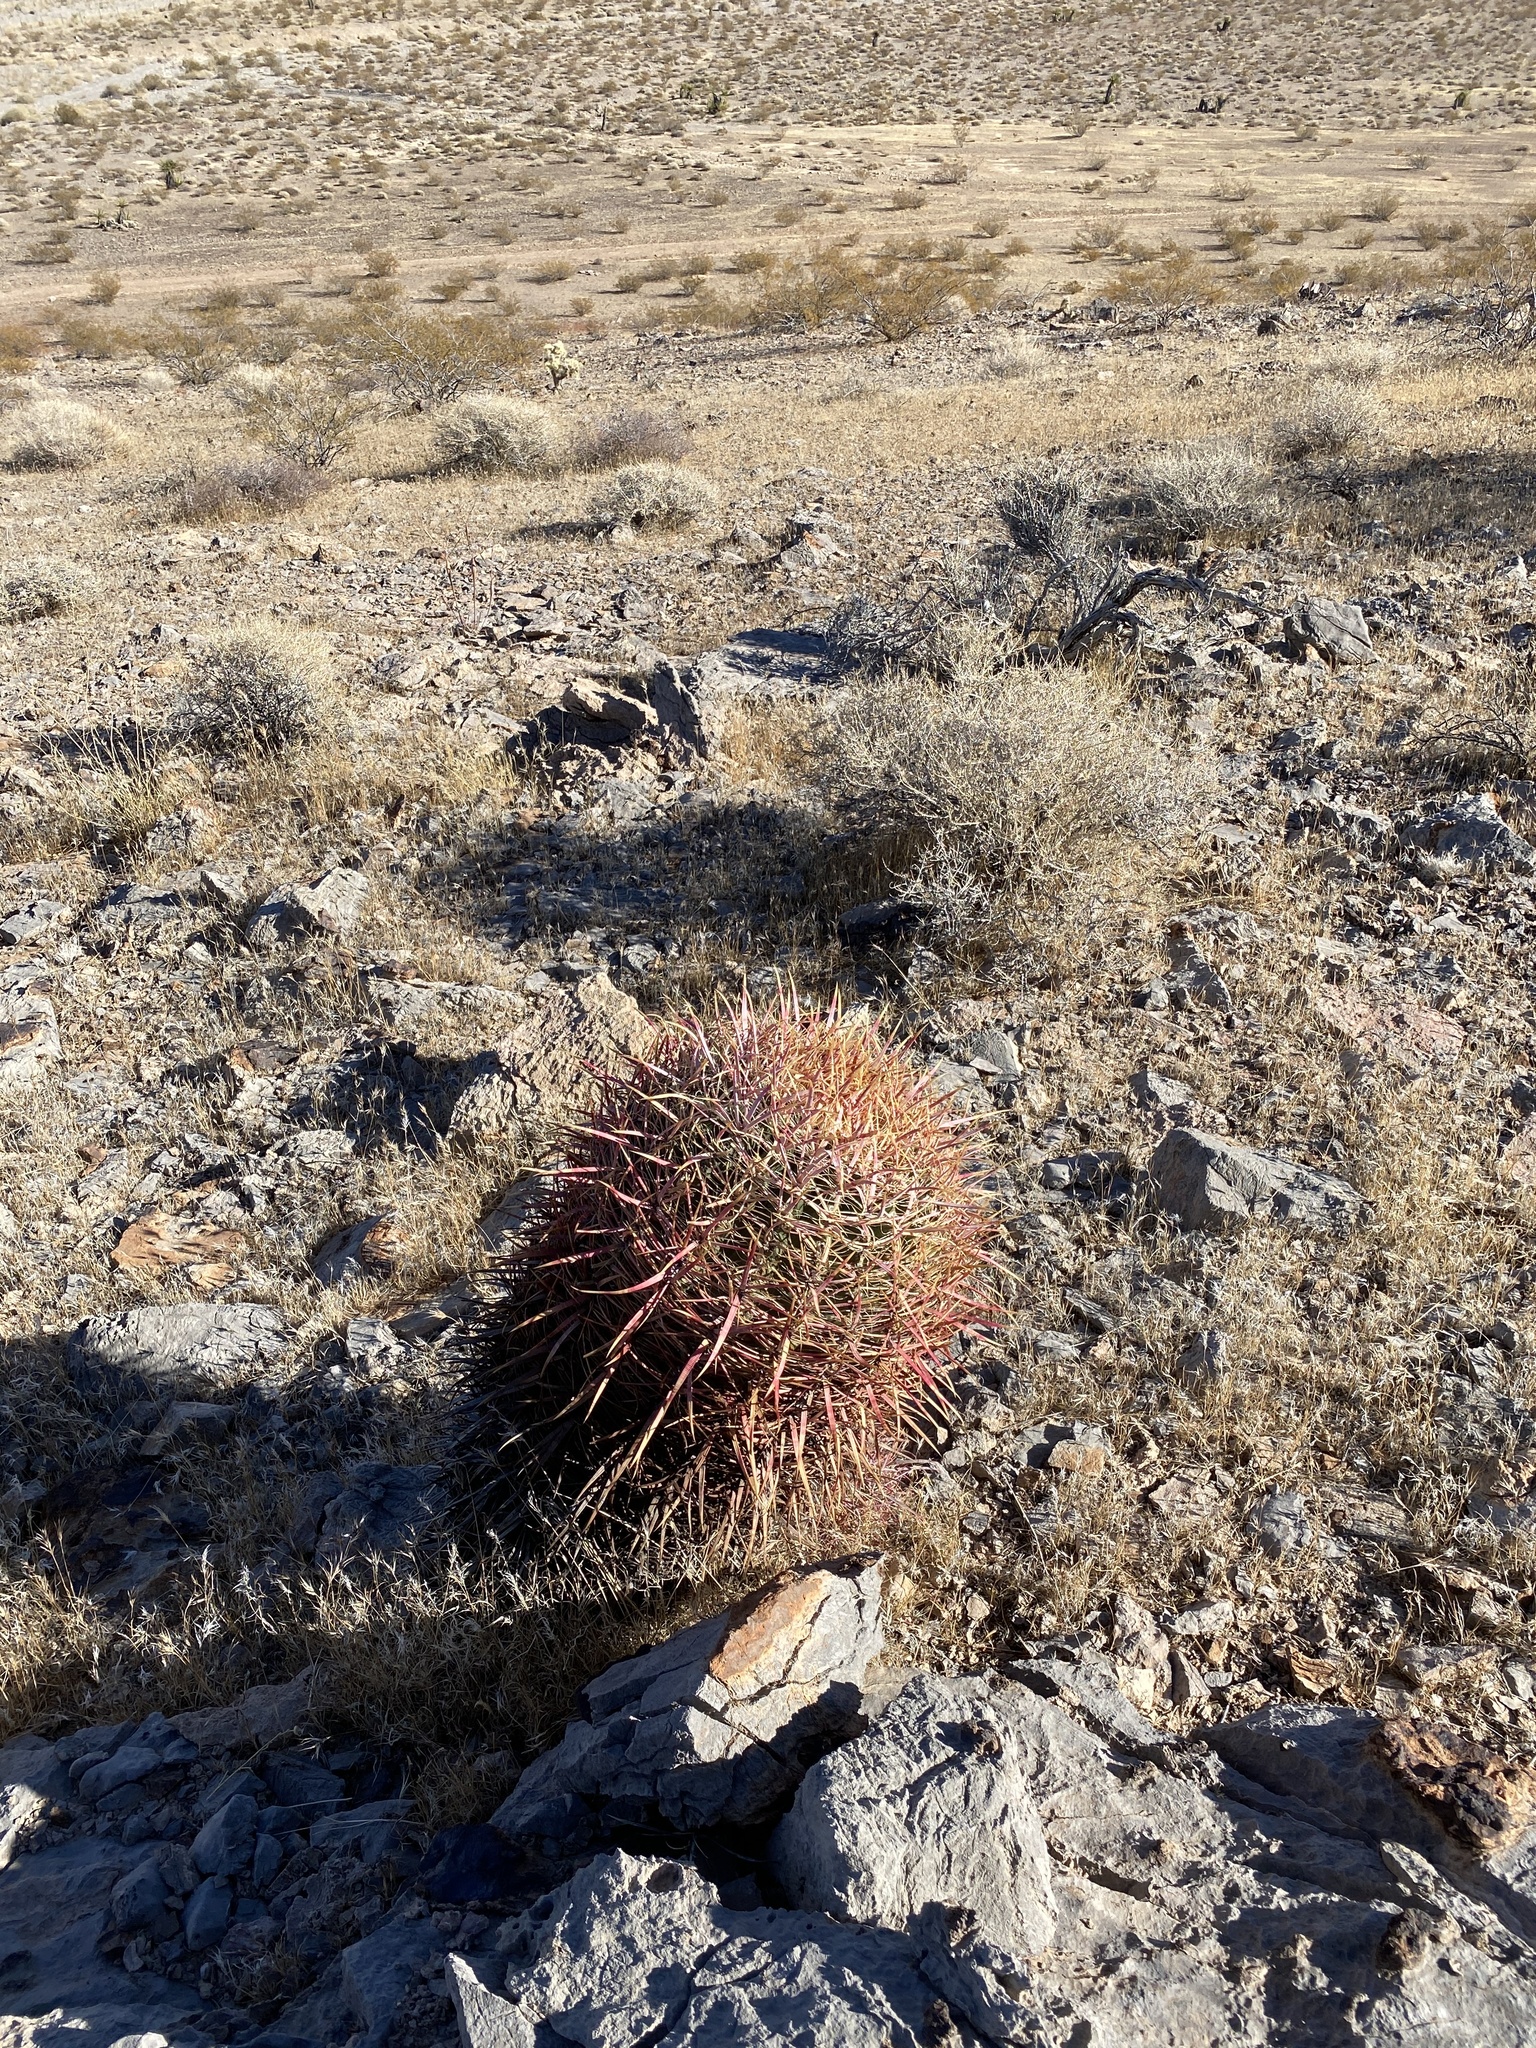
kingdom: Plantae
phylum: Tracheophyta
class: Magnoliopsida
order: Caryophyllales
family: Cactaceae
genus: Ferocactus
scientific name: Ferocactus cylindraceus
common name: California barrel cactus
